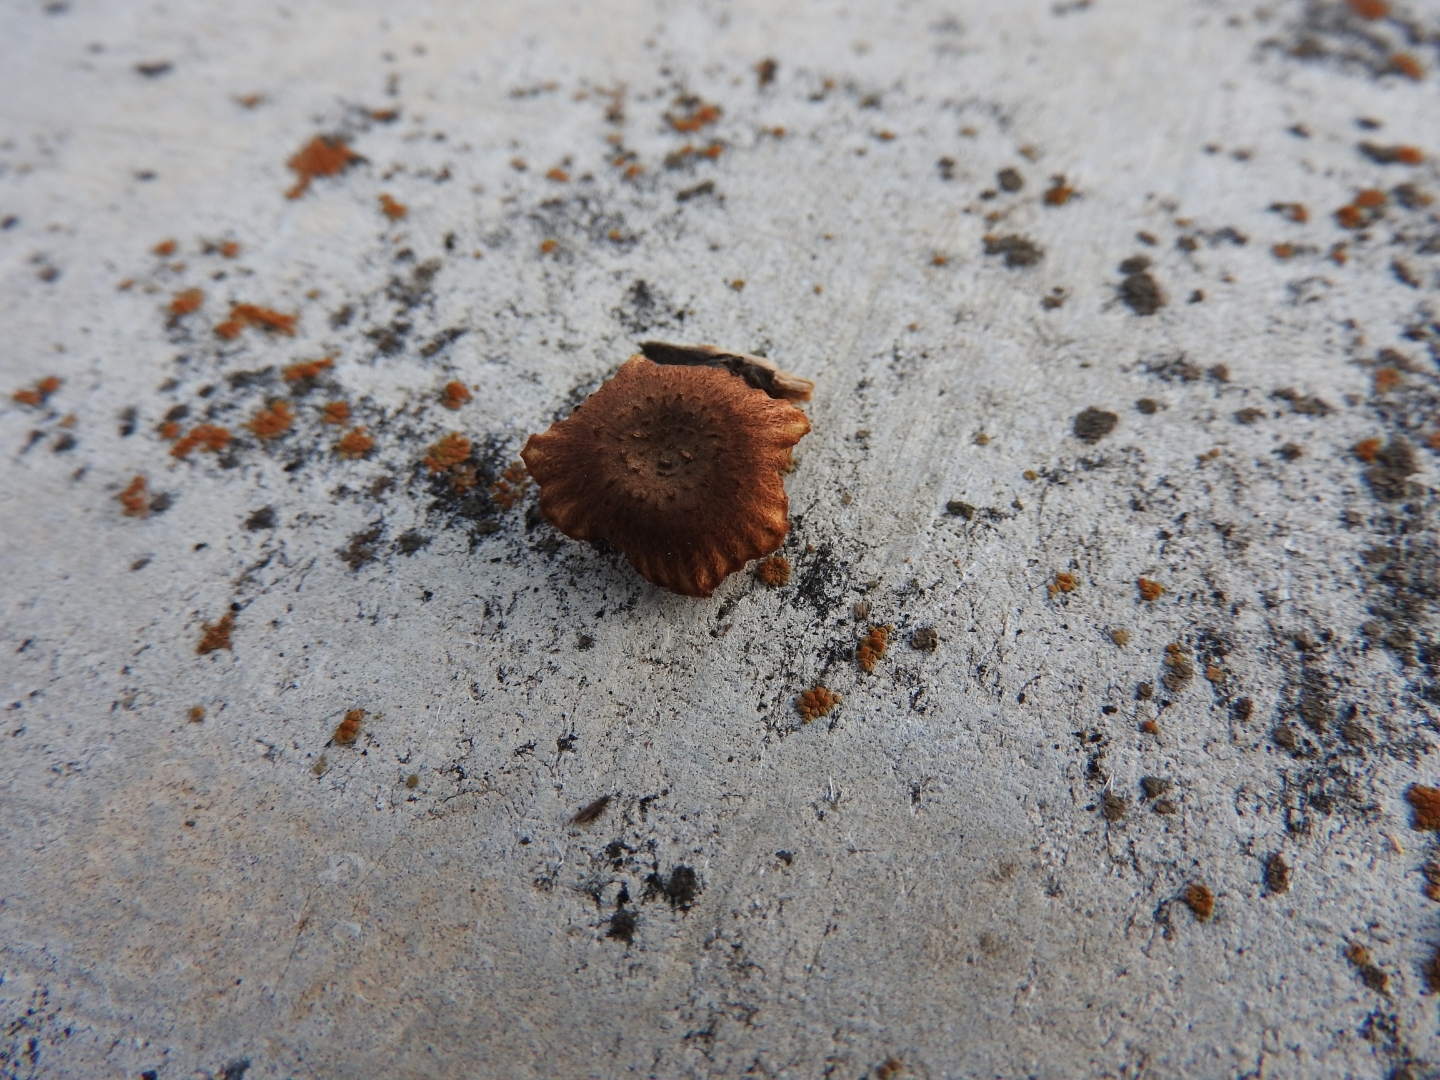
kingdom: Fungi
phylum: Basidiomycota
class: Agaricomycetes
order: Gloeophyllales
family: Gloeophyllaceae
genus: Heliocybe
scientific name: Heliocybe sulcata
